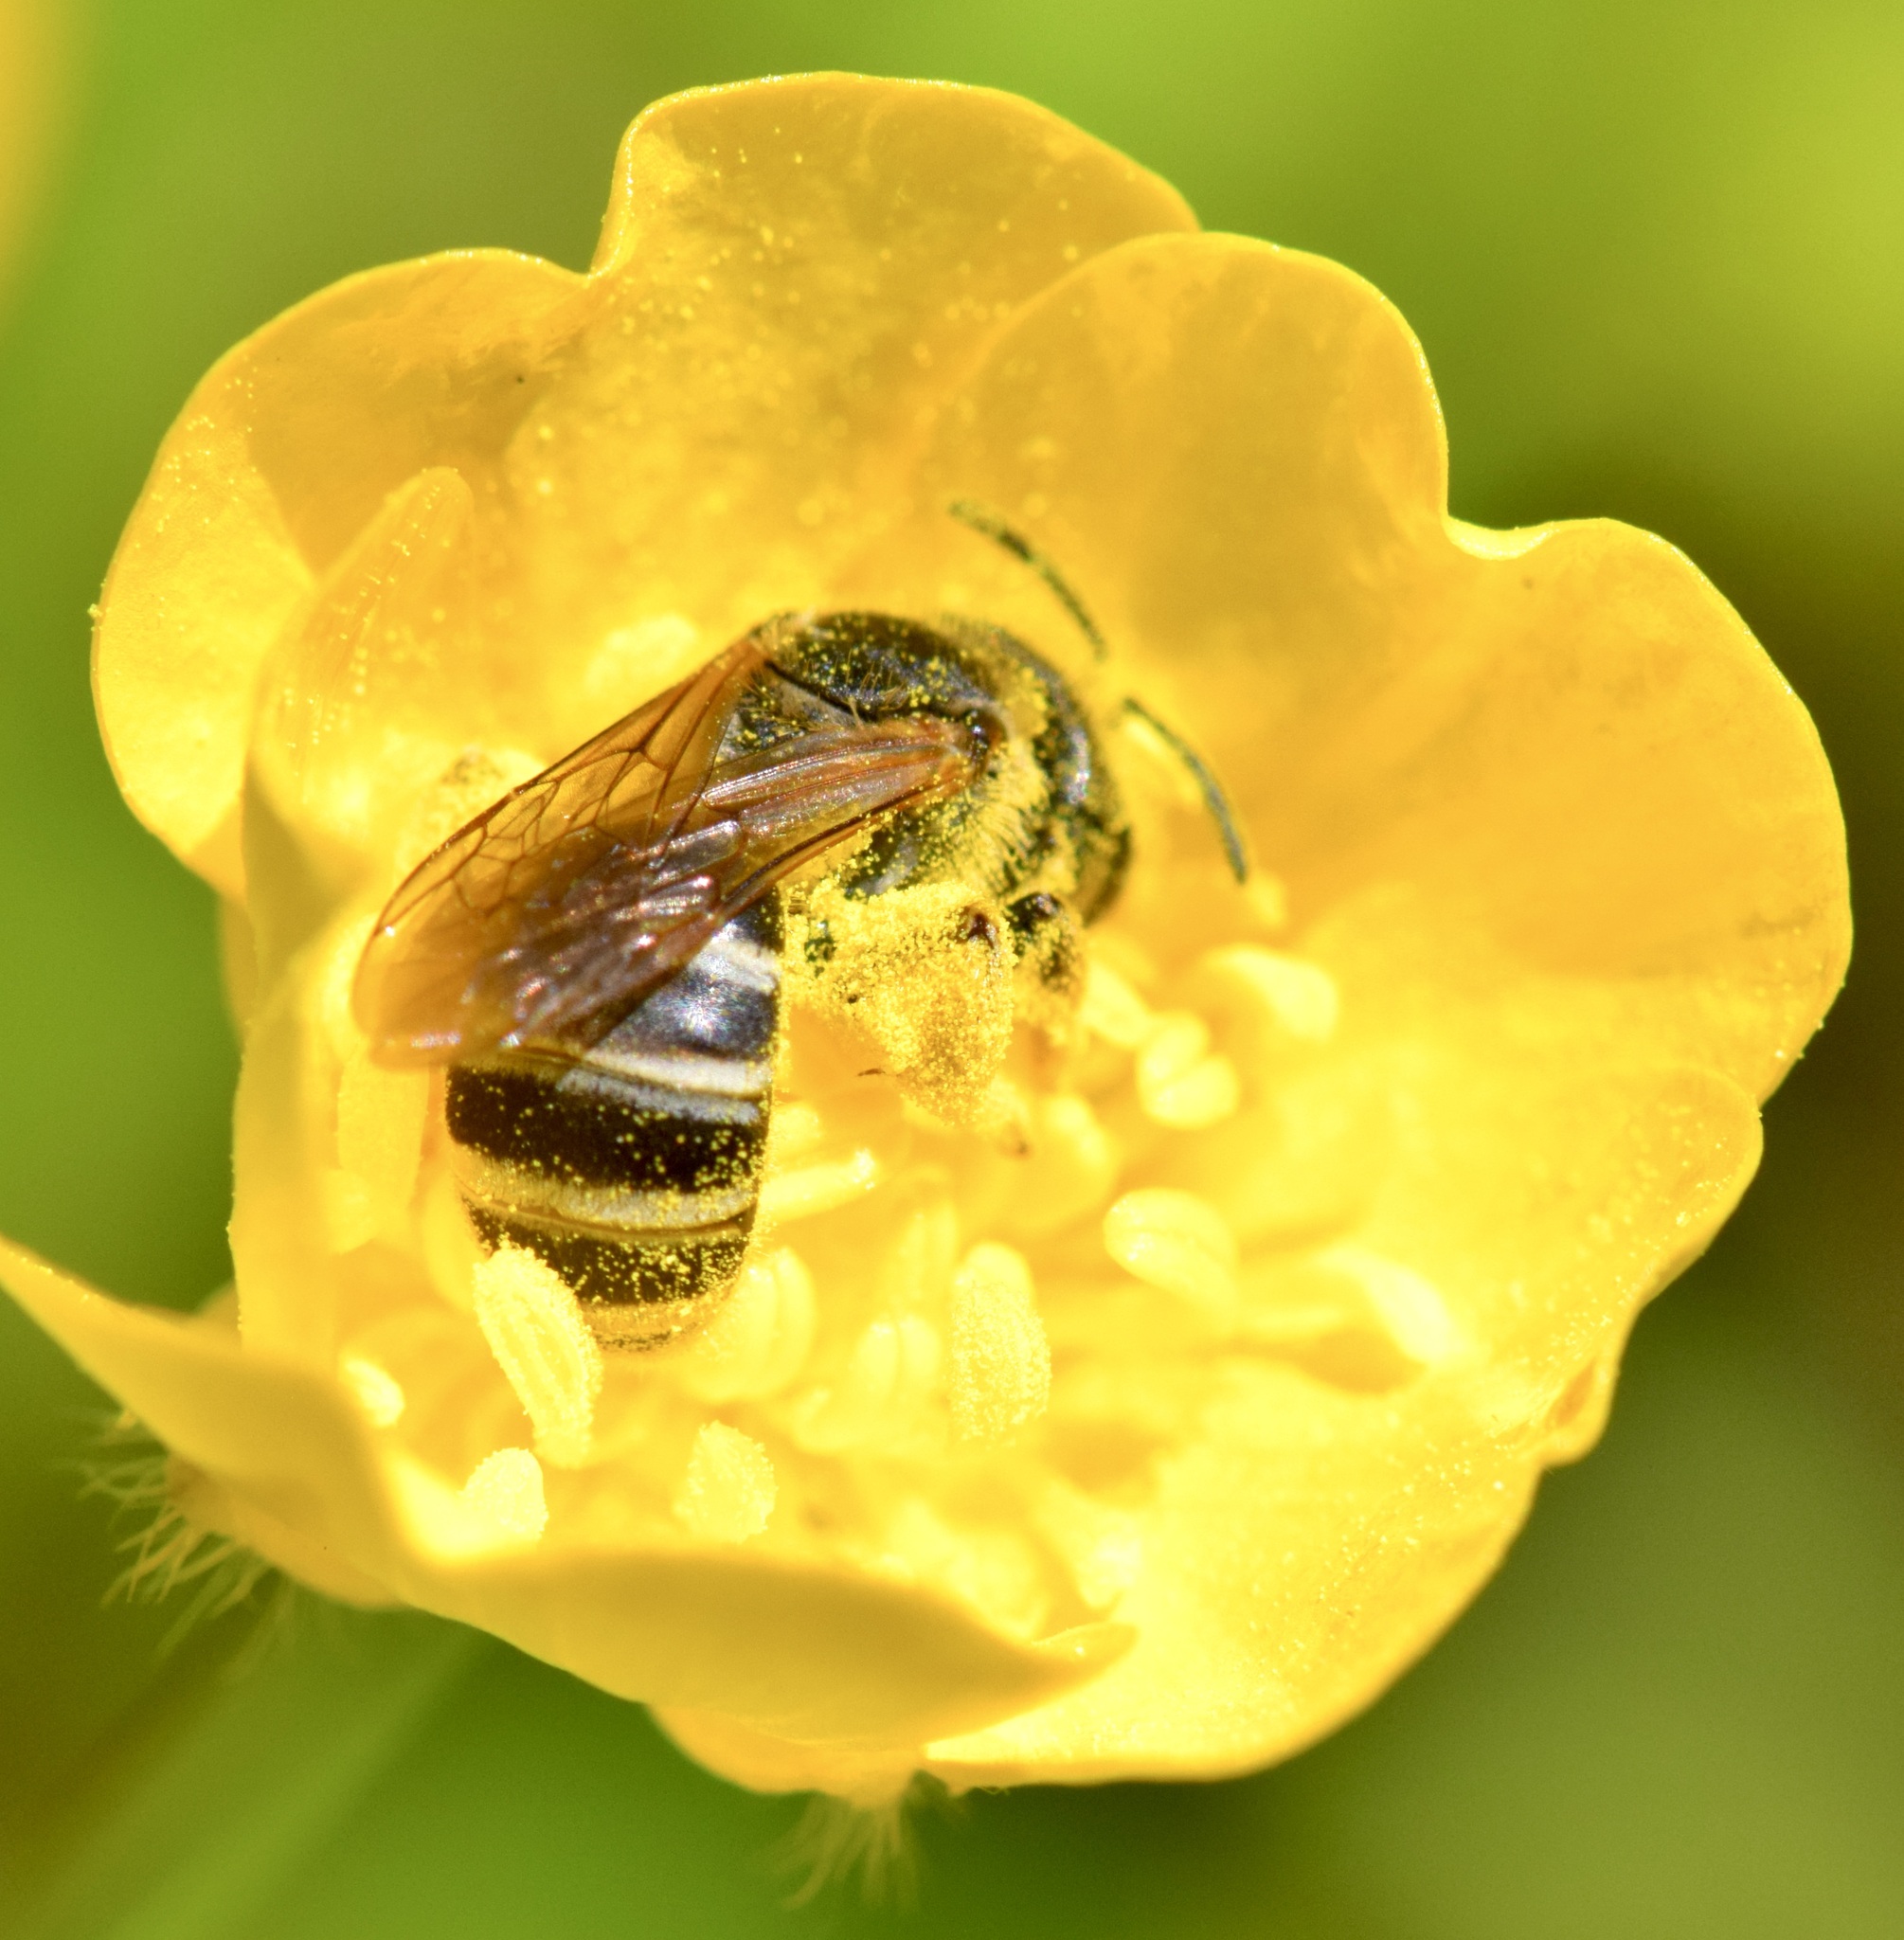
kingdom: Animalia
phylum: Arthropoda
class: Insecta
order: Hymenoptera
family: Halictidae
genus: Halictus
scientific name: Halictus ligatus
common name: Ligated furrow bee
